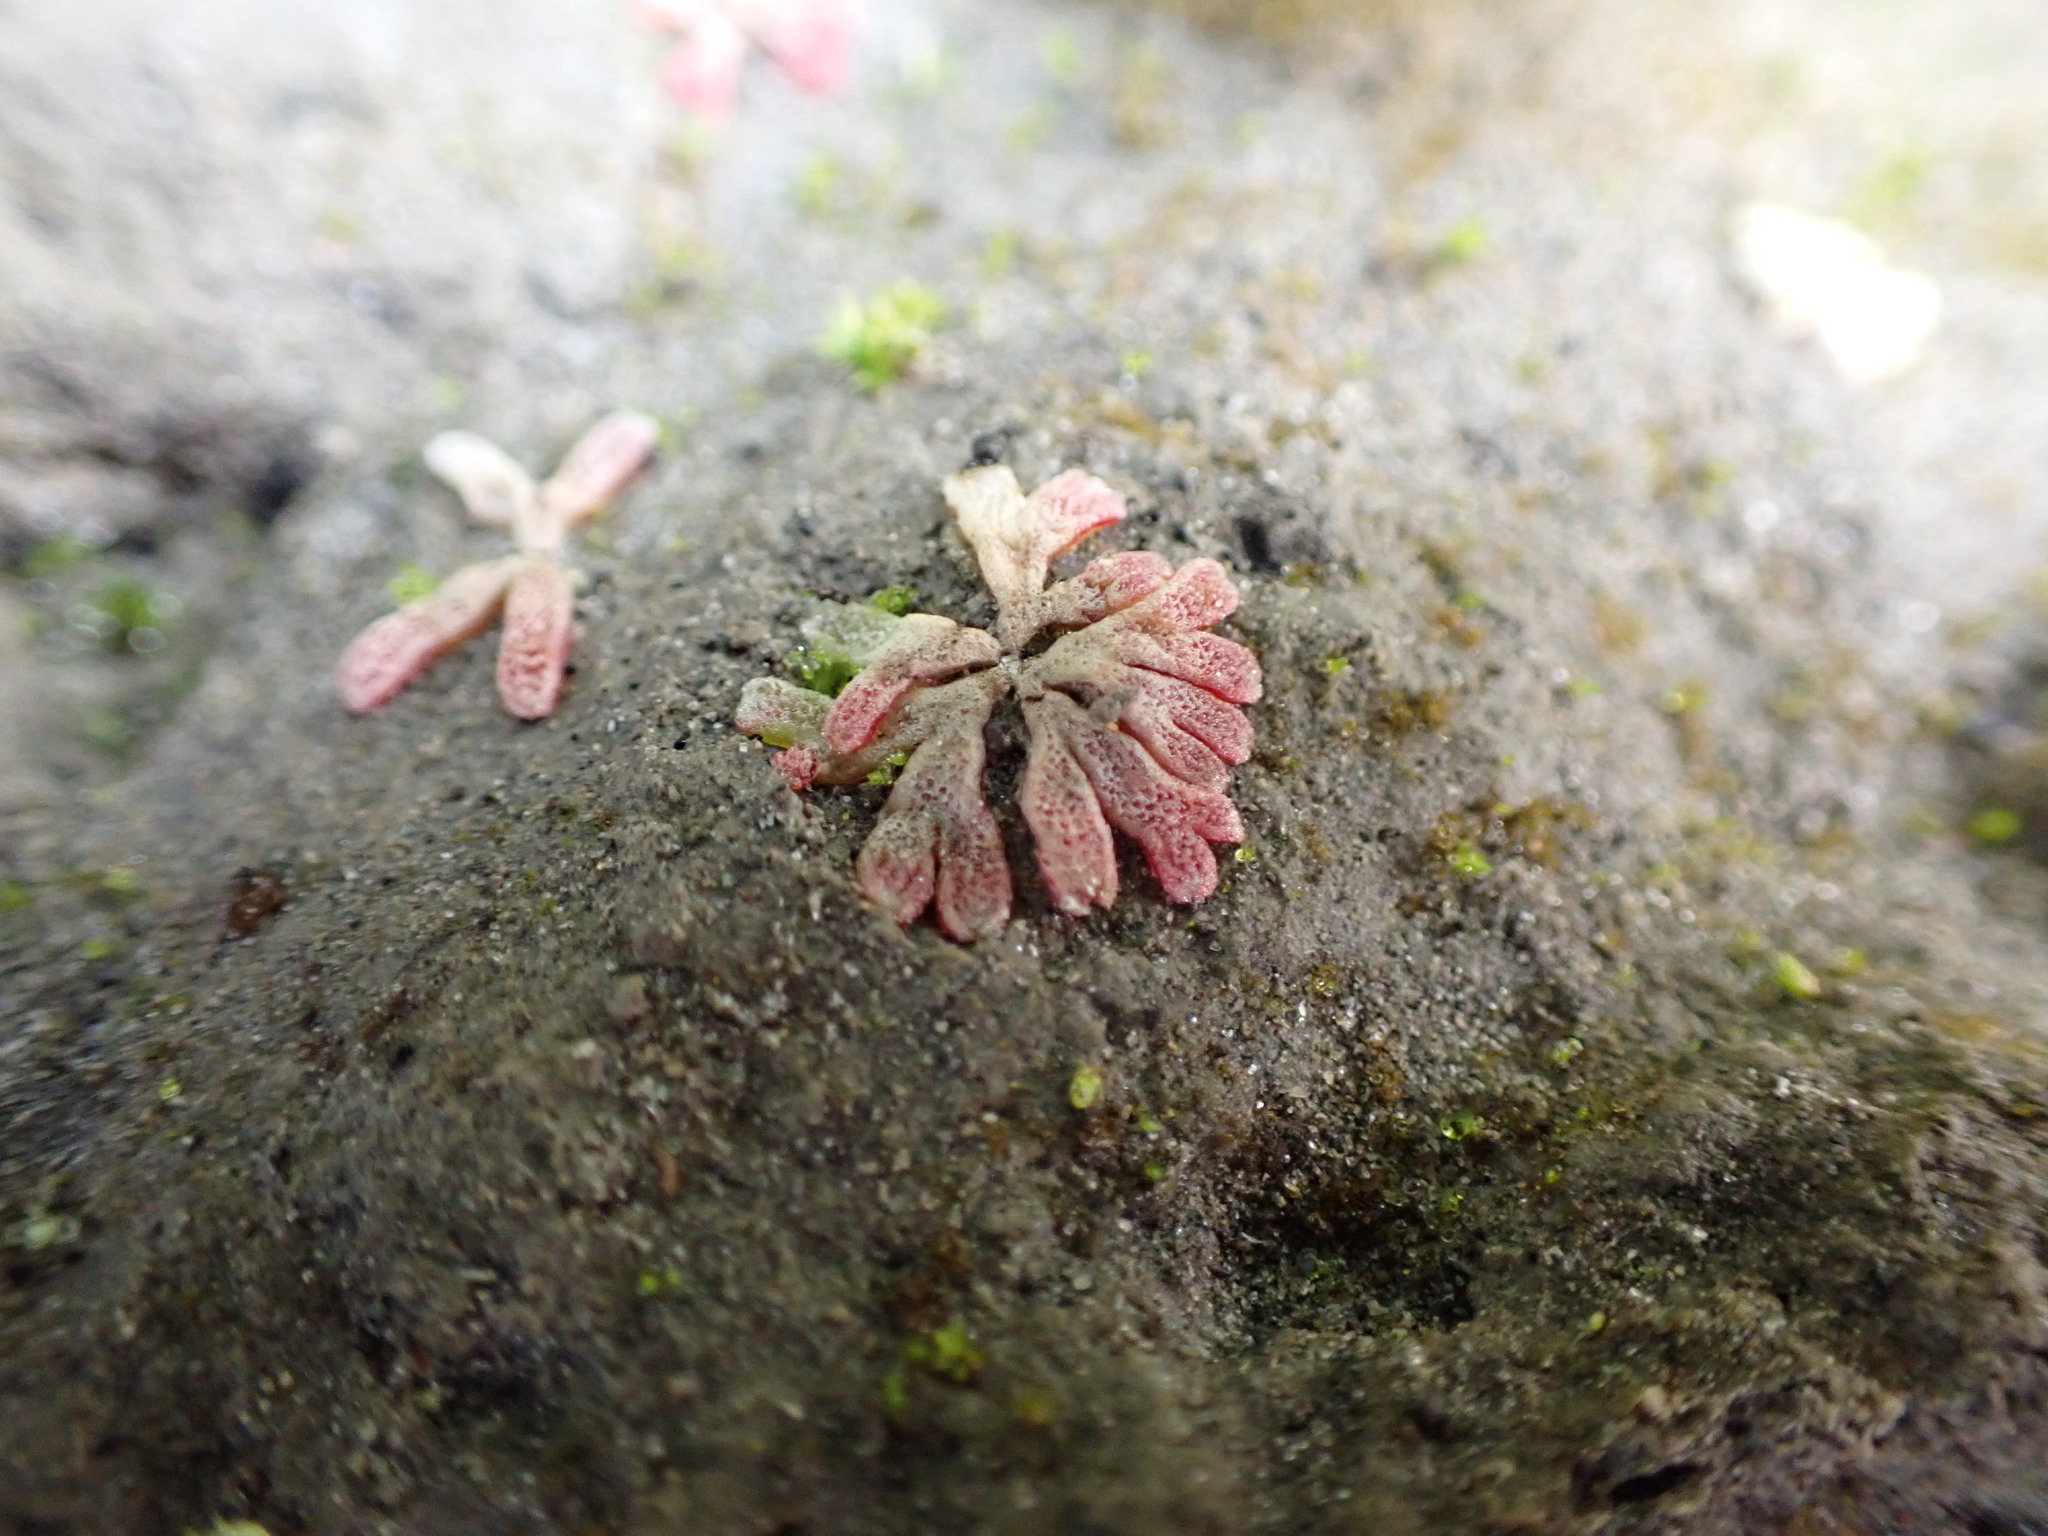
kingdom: Plantae
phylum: Marchantiophyta
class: Marchantiopsida
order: Marchantiales
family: Ricciaceae
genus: Riccia
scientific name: Riccia frostii
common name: Frost s crystalwort
